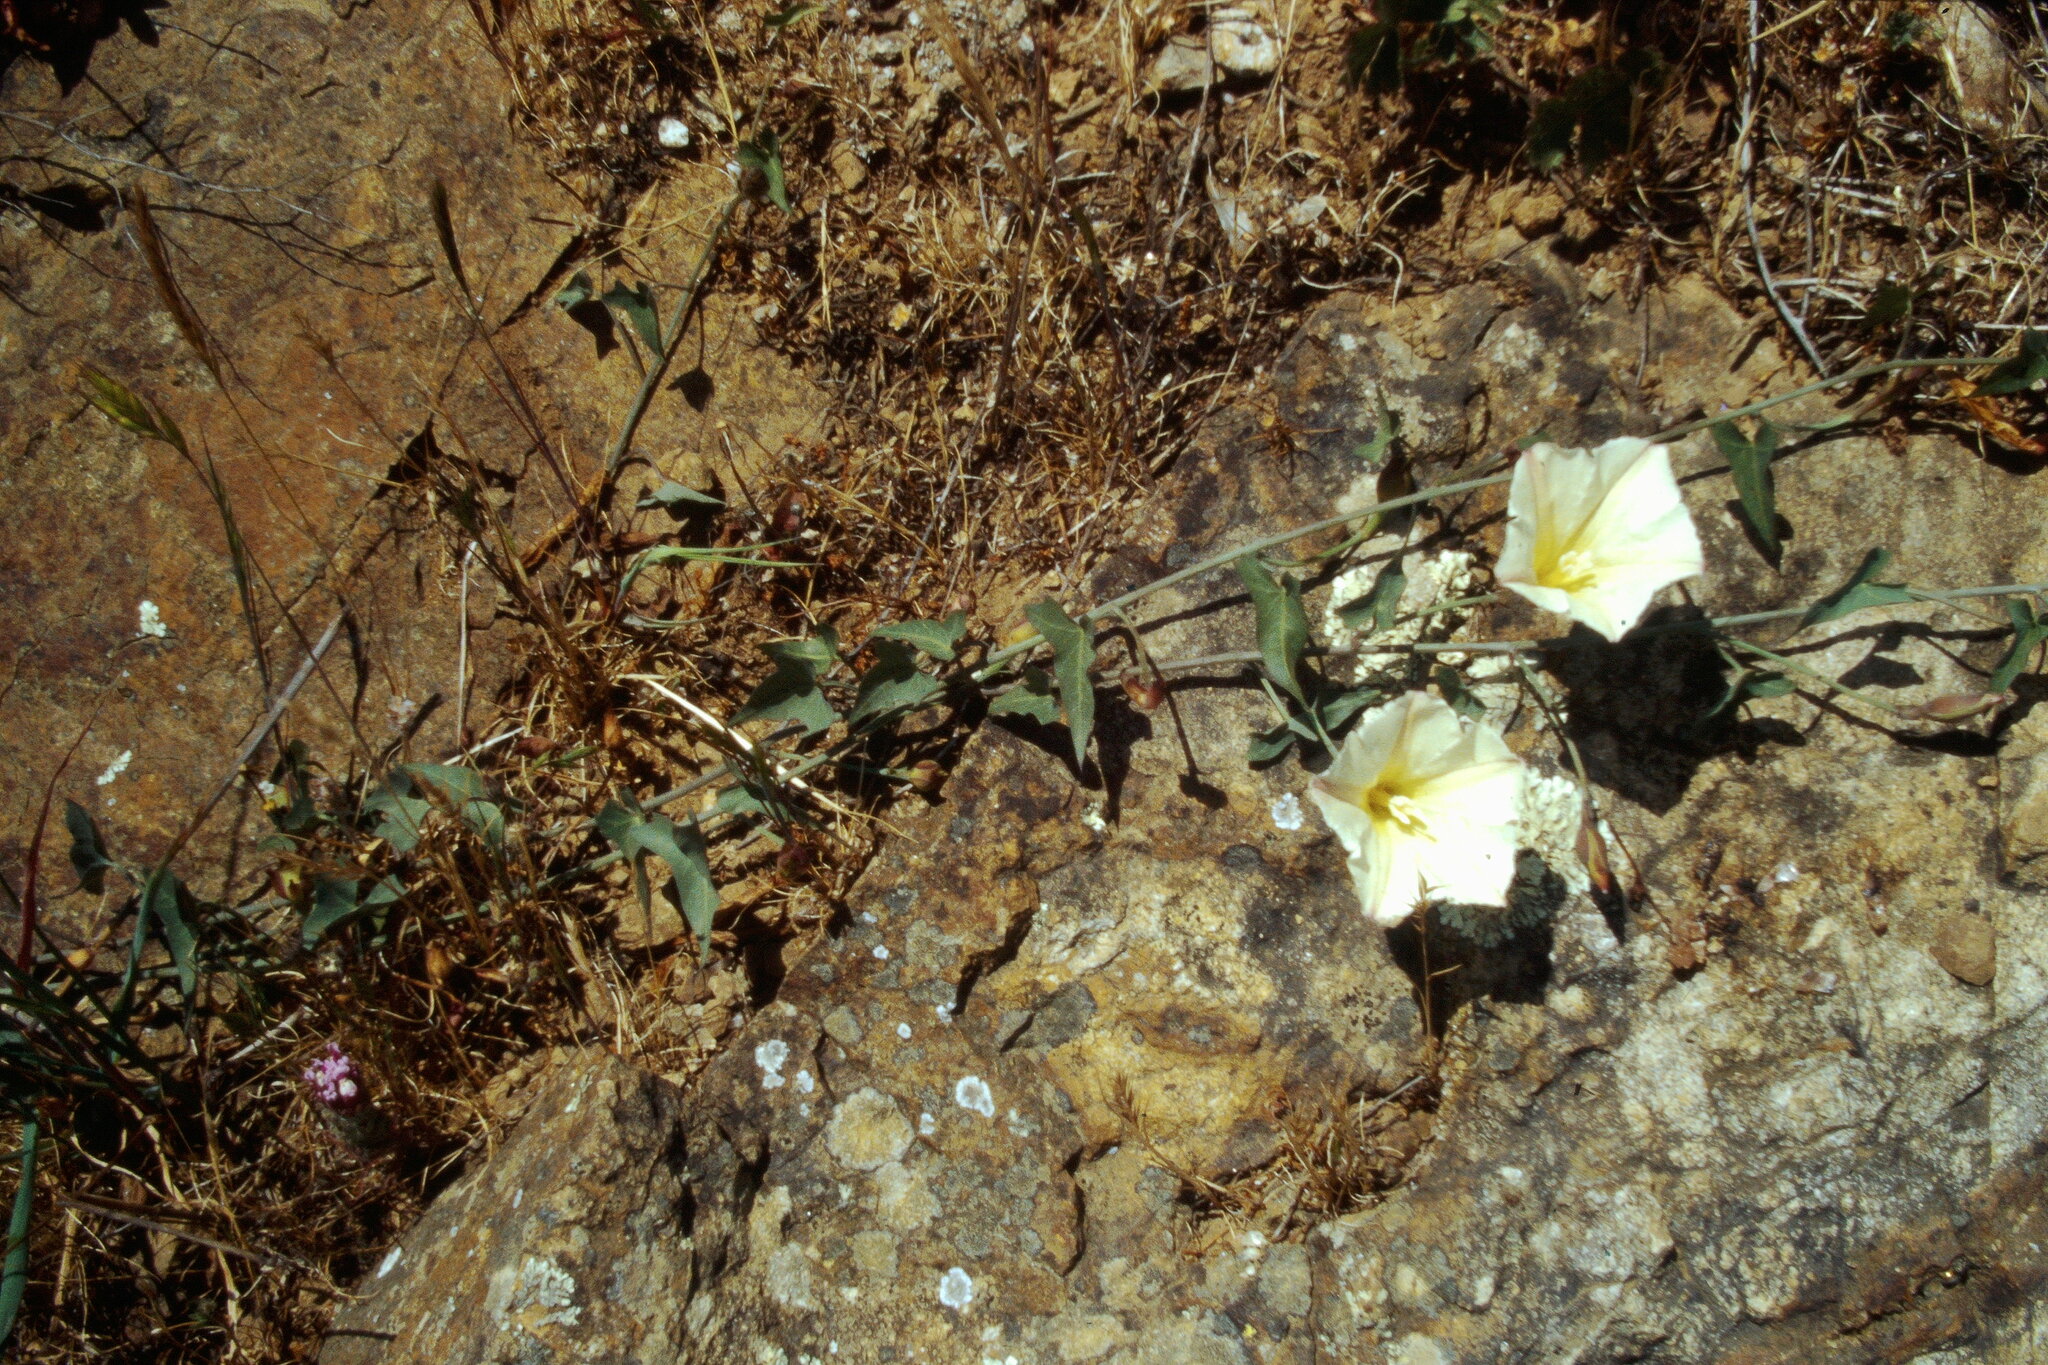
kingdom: Plantae
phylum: Tracheophyta
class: Magnoliopsida
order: Solanales
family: Convolvulaceae
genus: Calystegia
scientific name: Calystegia purpurata
